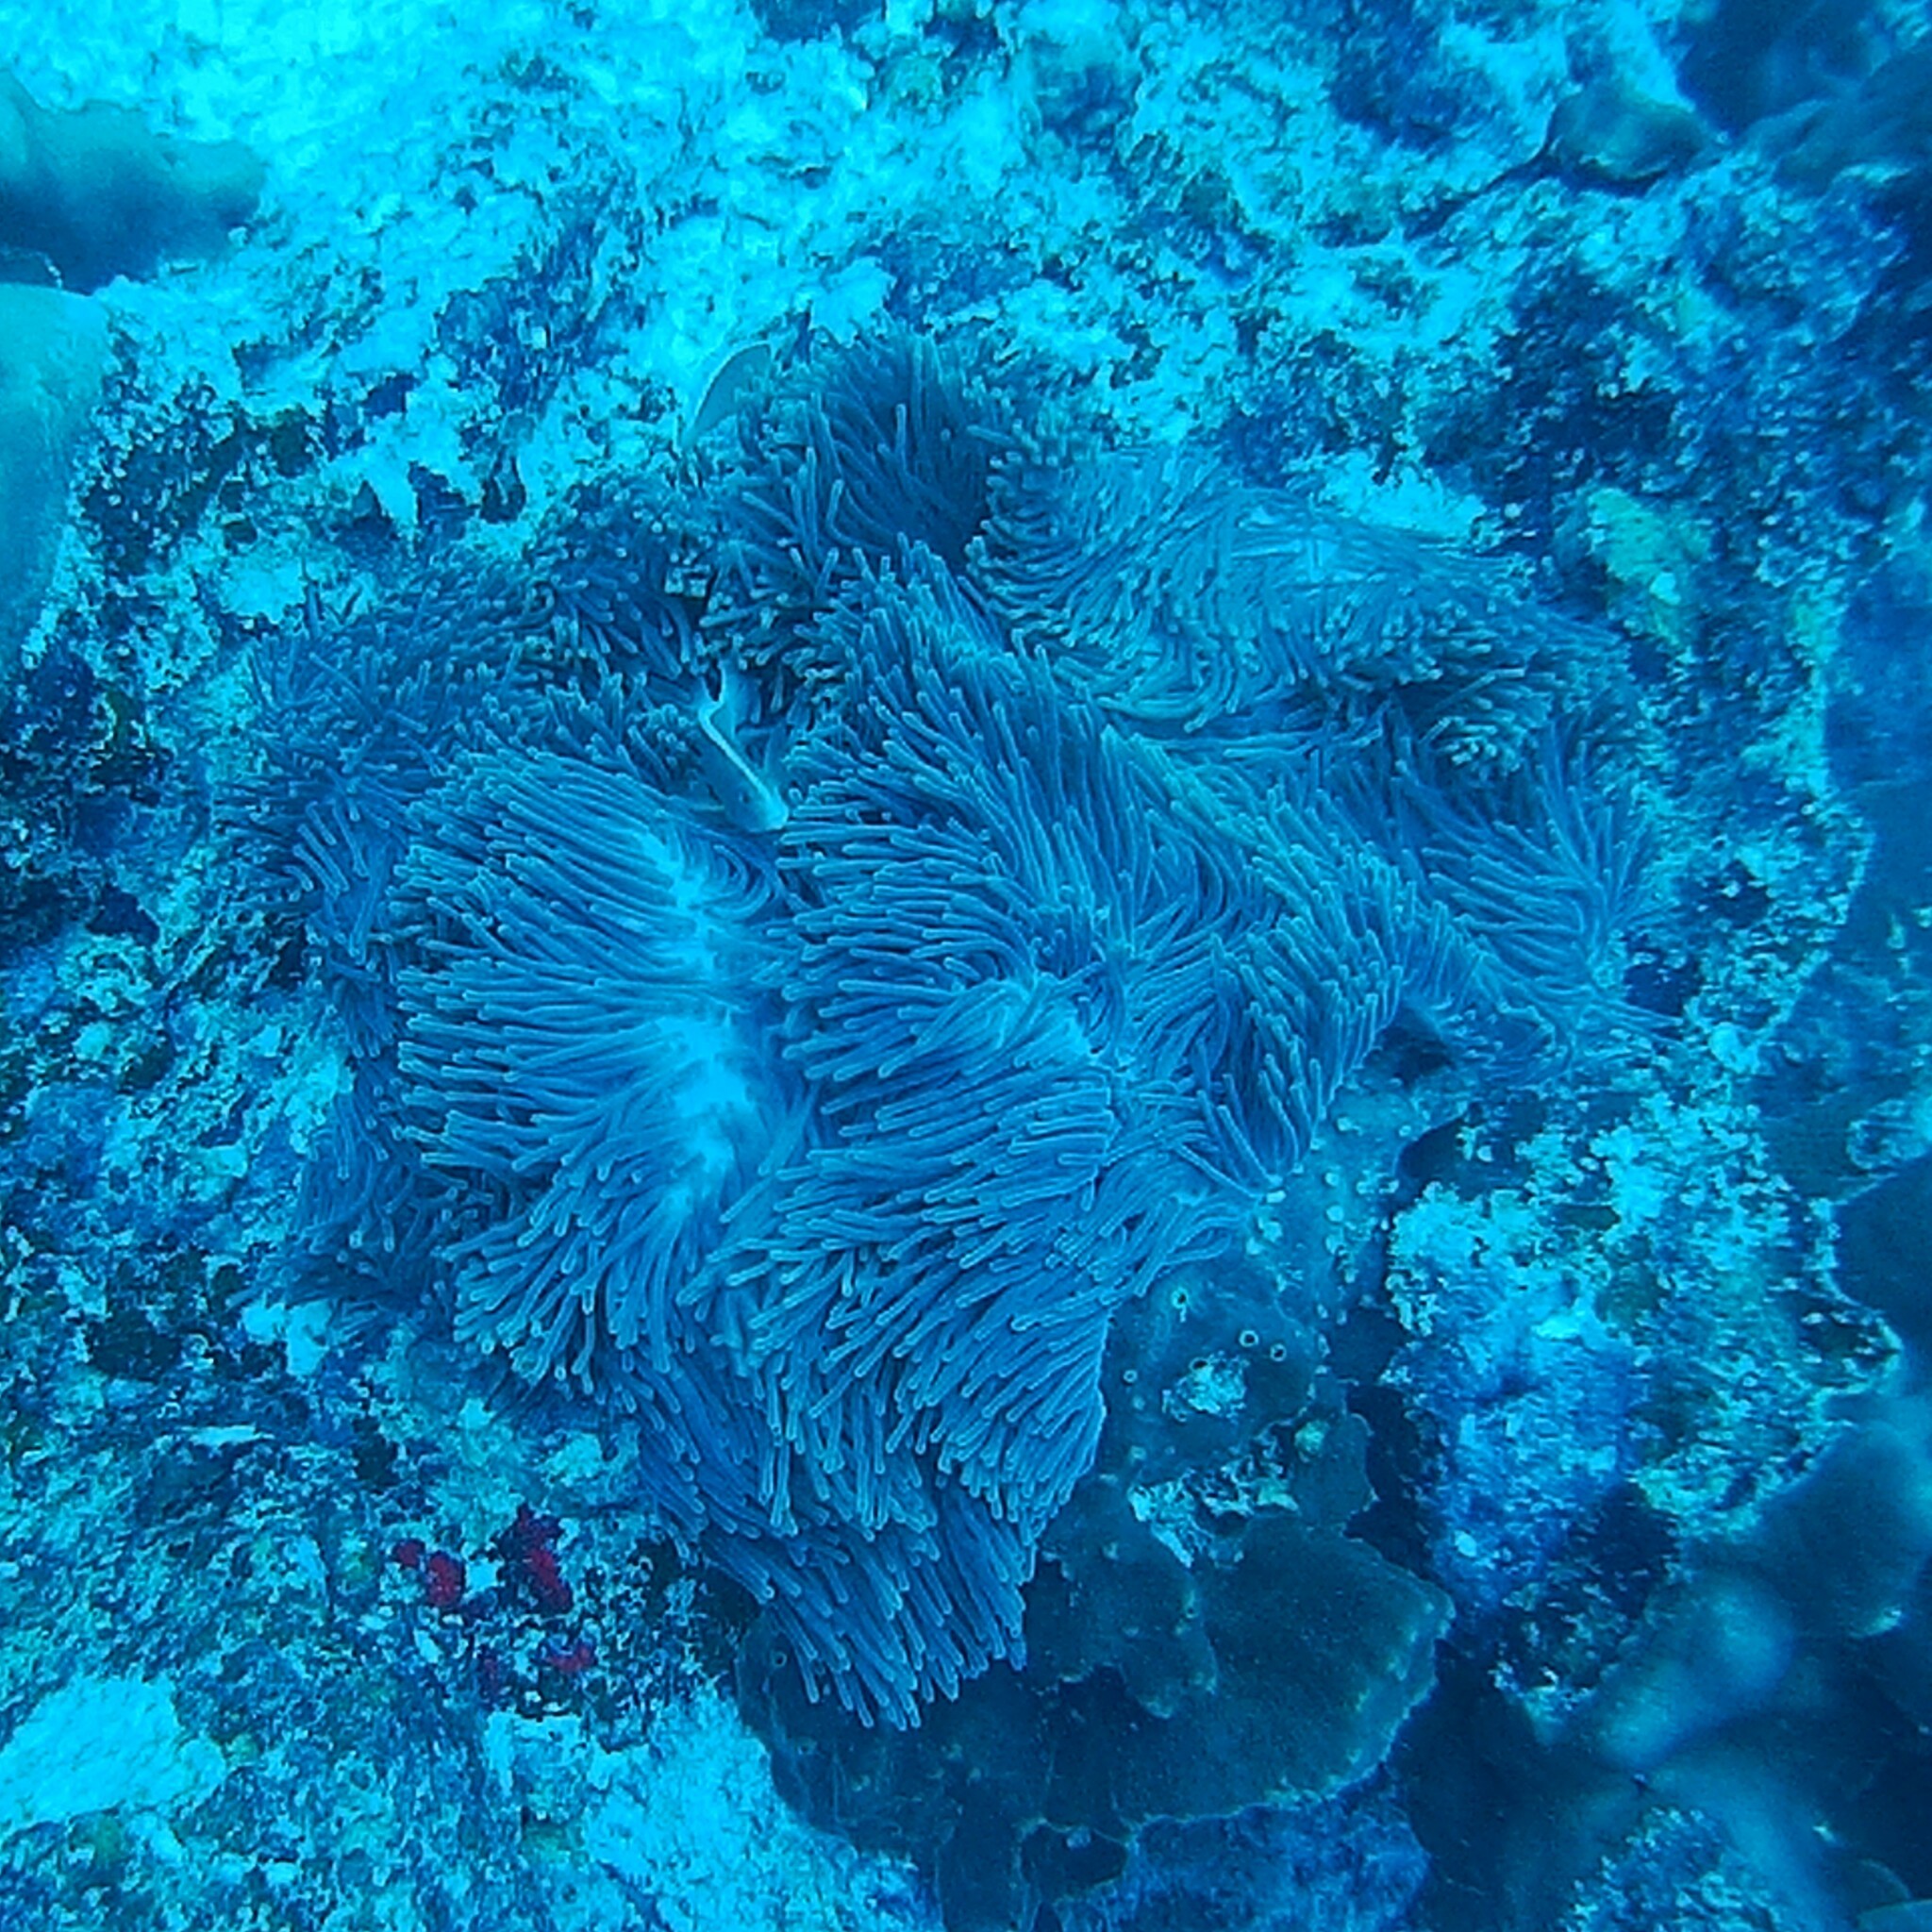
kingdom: Animalia
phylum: Cnidaria
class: Anthozoa
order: Actiniaria
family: Stichodactylidae
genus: Radianthus
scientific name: Radianthus magnifica
